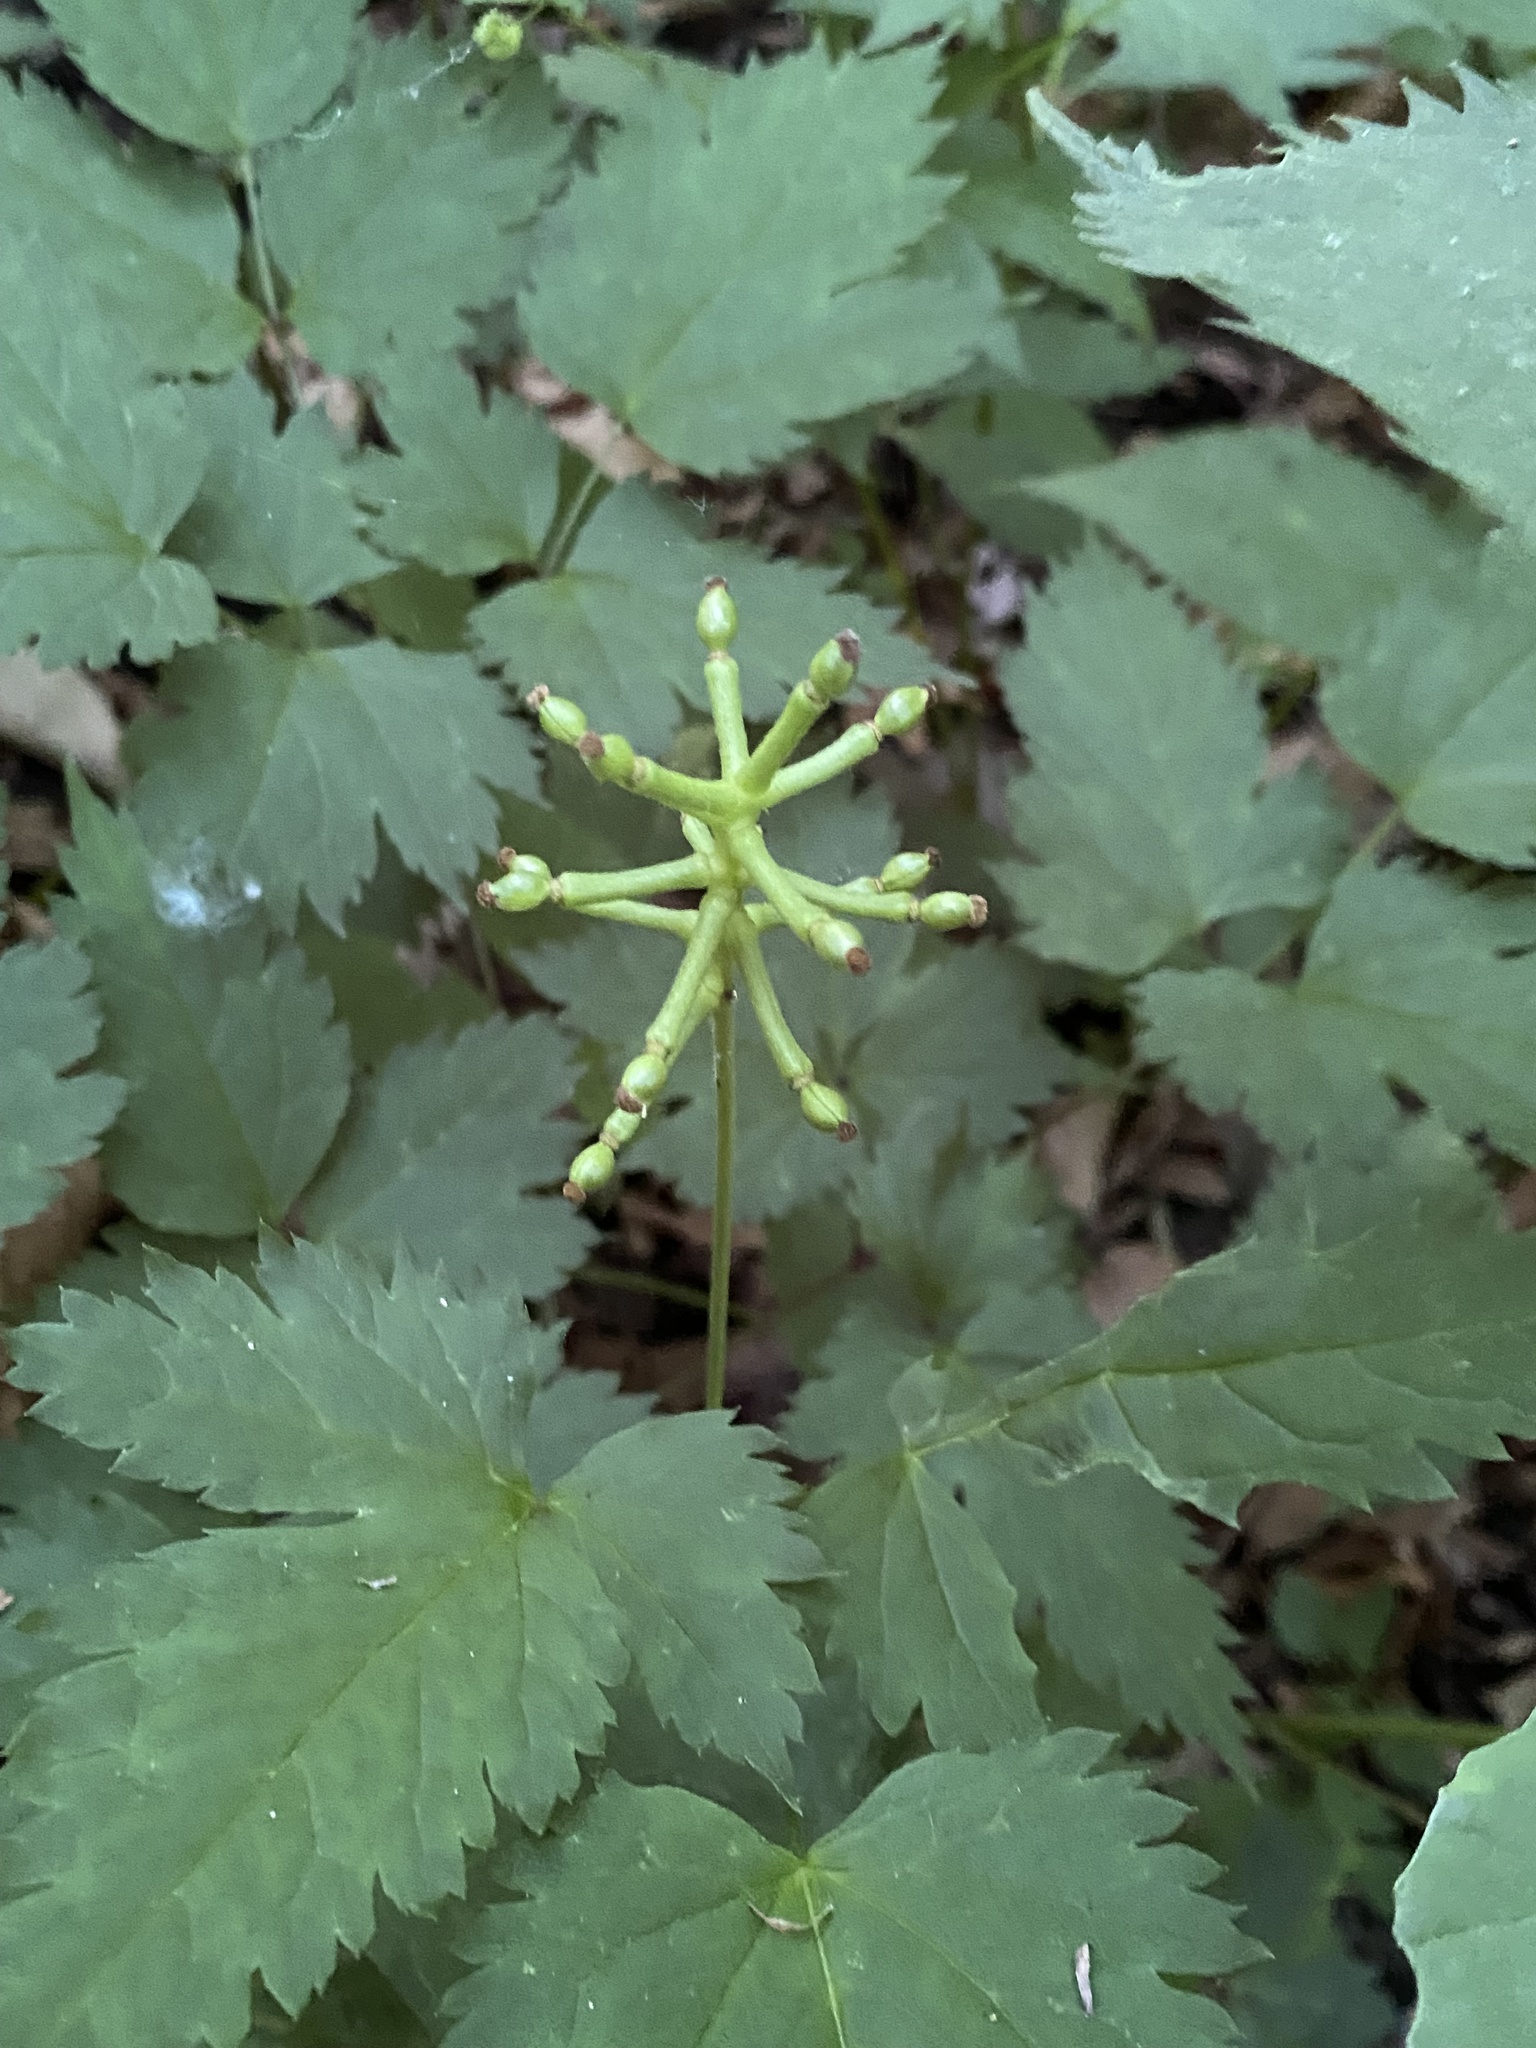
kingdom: Plantae
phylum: Tracheophyta
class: Magnoliopsida
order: Ranunculales
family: Ranunculaceae
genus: Actaea
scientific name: Actaea pachypoda
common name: Doll's-eyes
